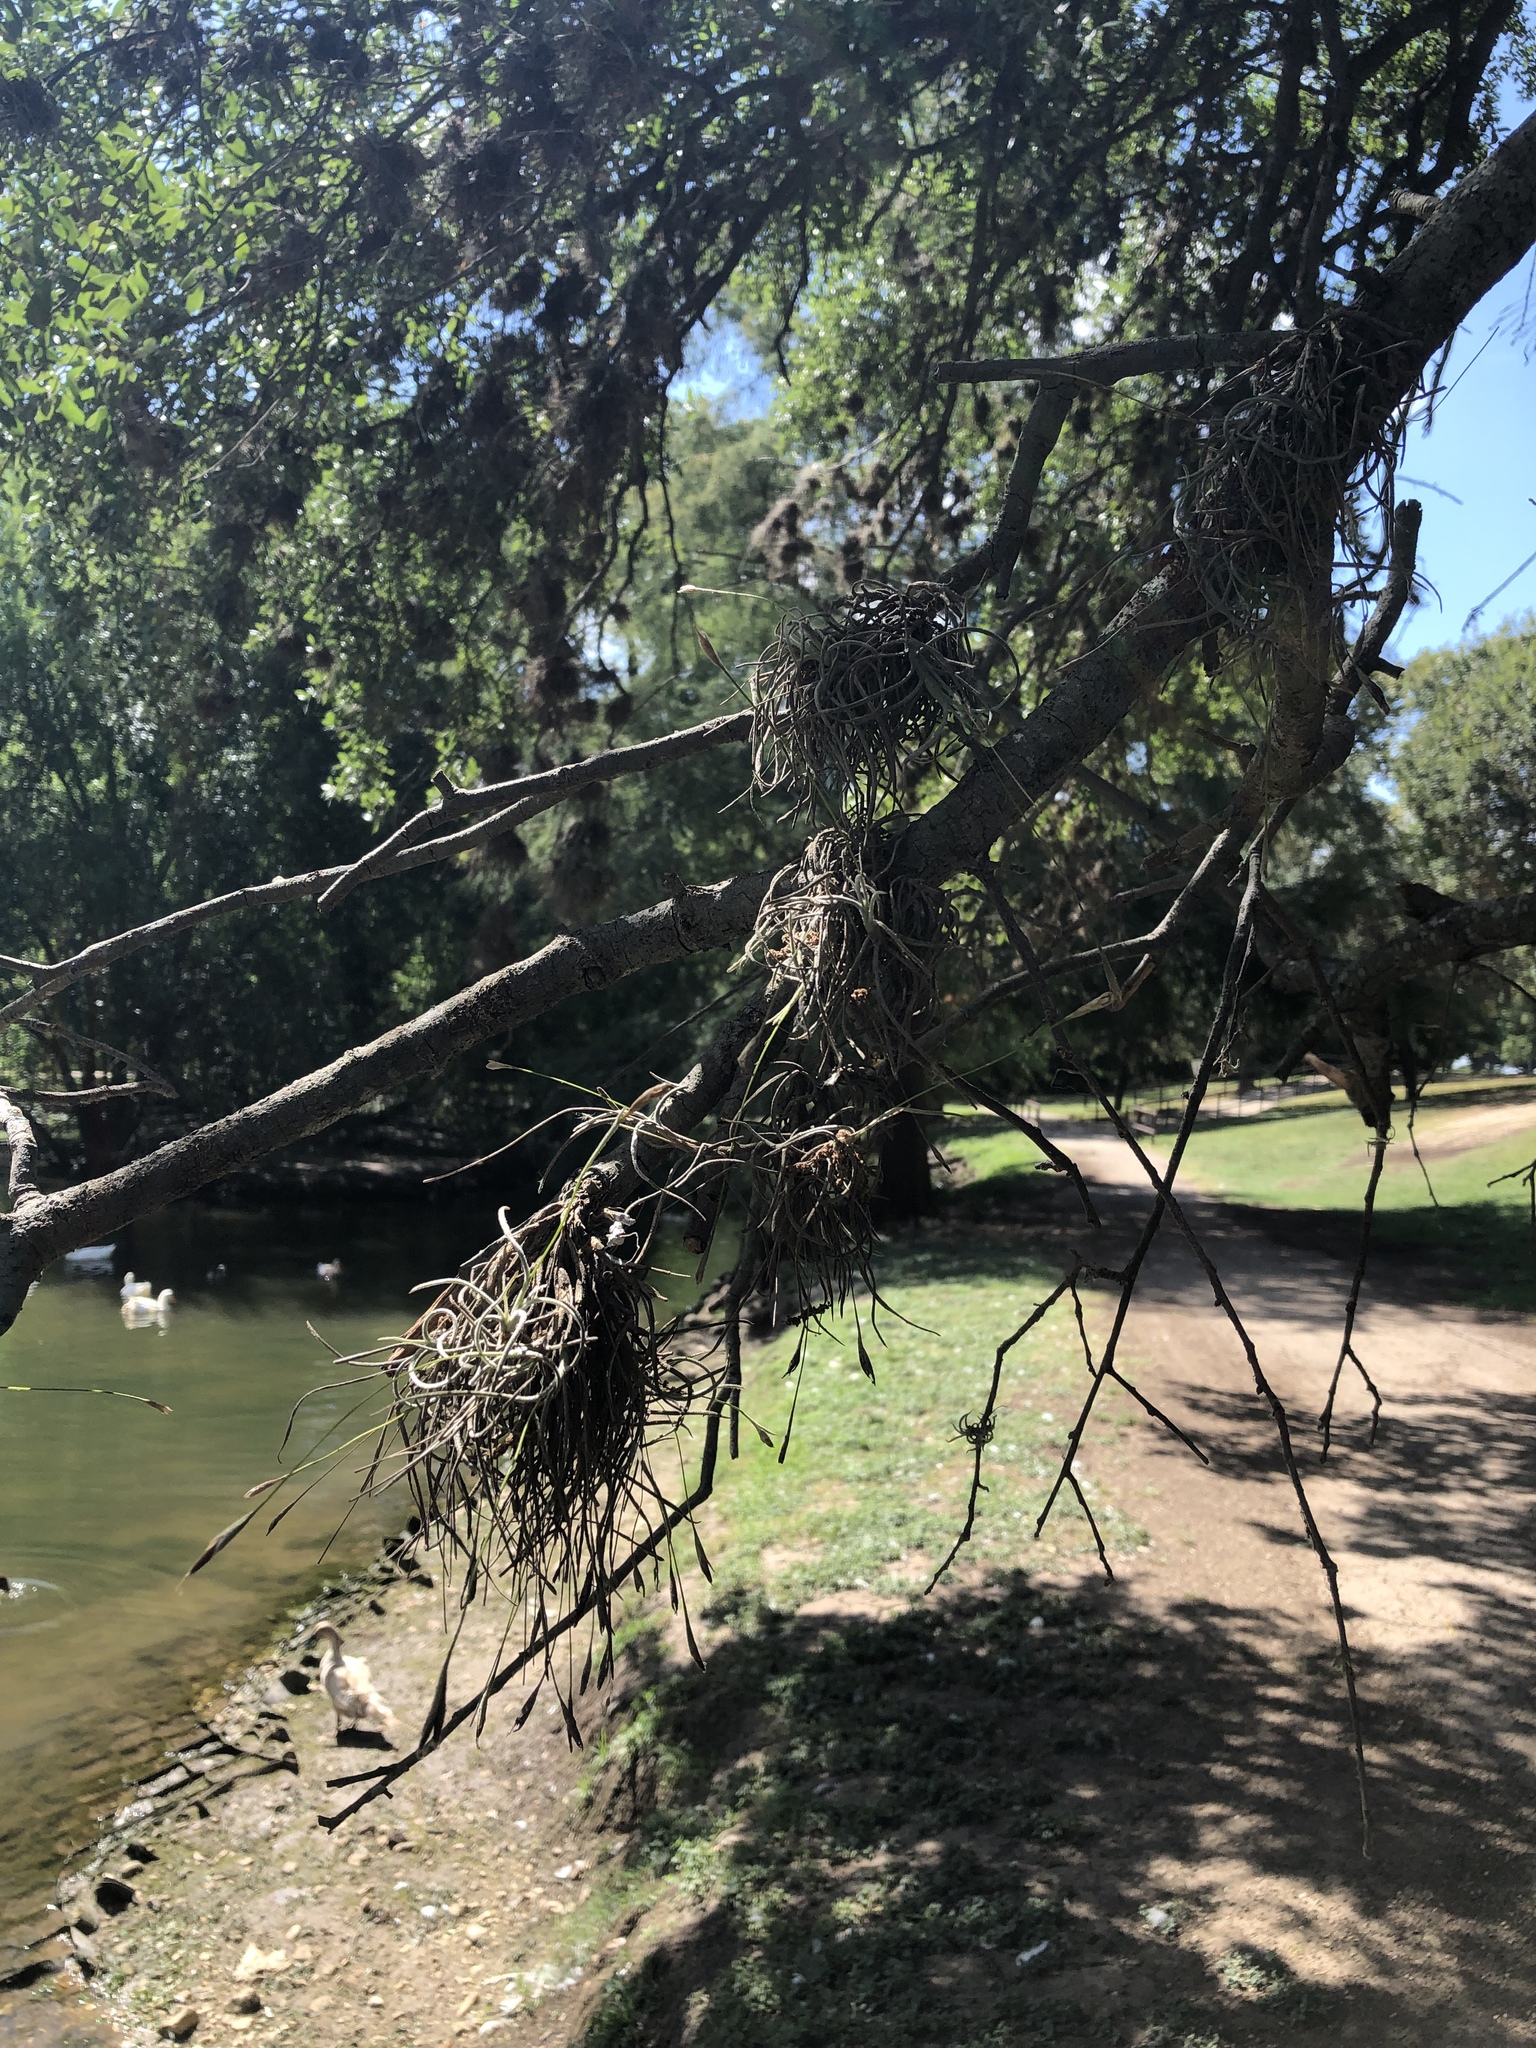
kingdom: Plantae
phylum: Tracheophyta
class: Liliopsida
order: Poales
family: Bromeliaceae
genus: Tillandsia
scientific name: Tillandsia recurvata
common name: Small ballmoss
